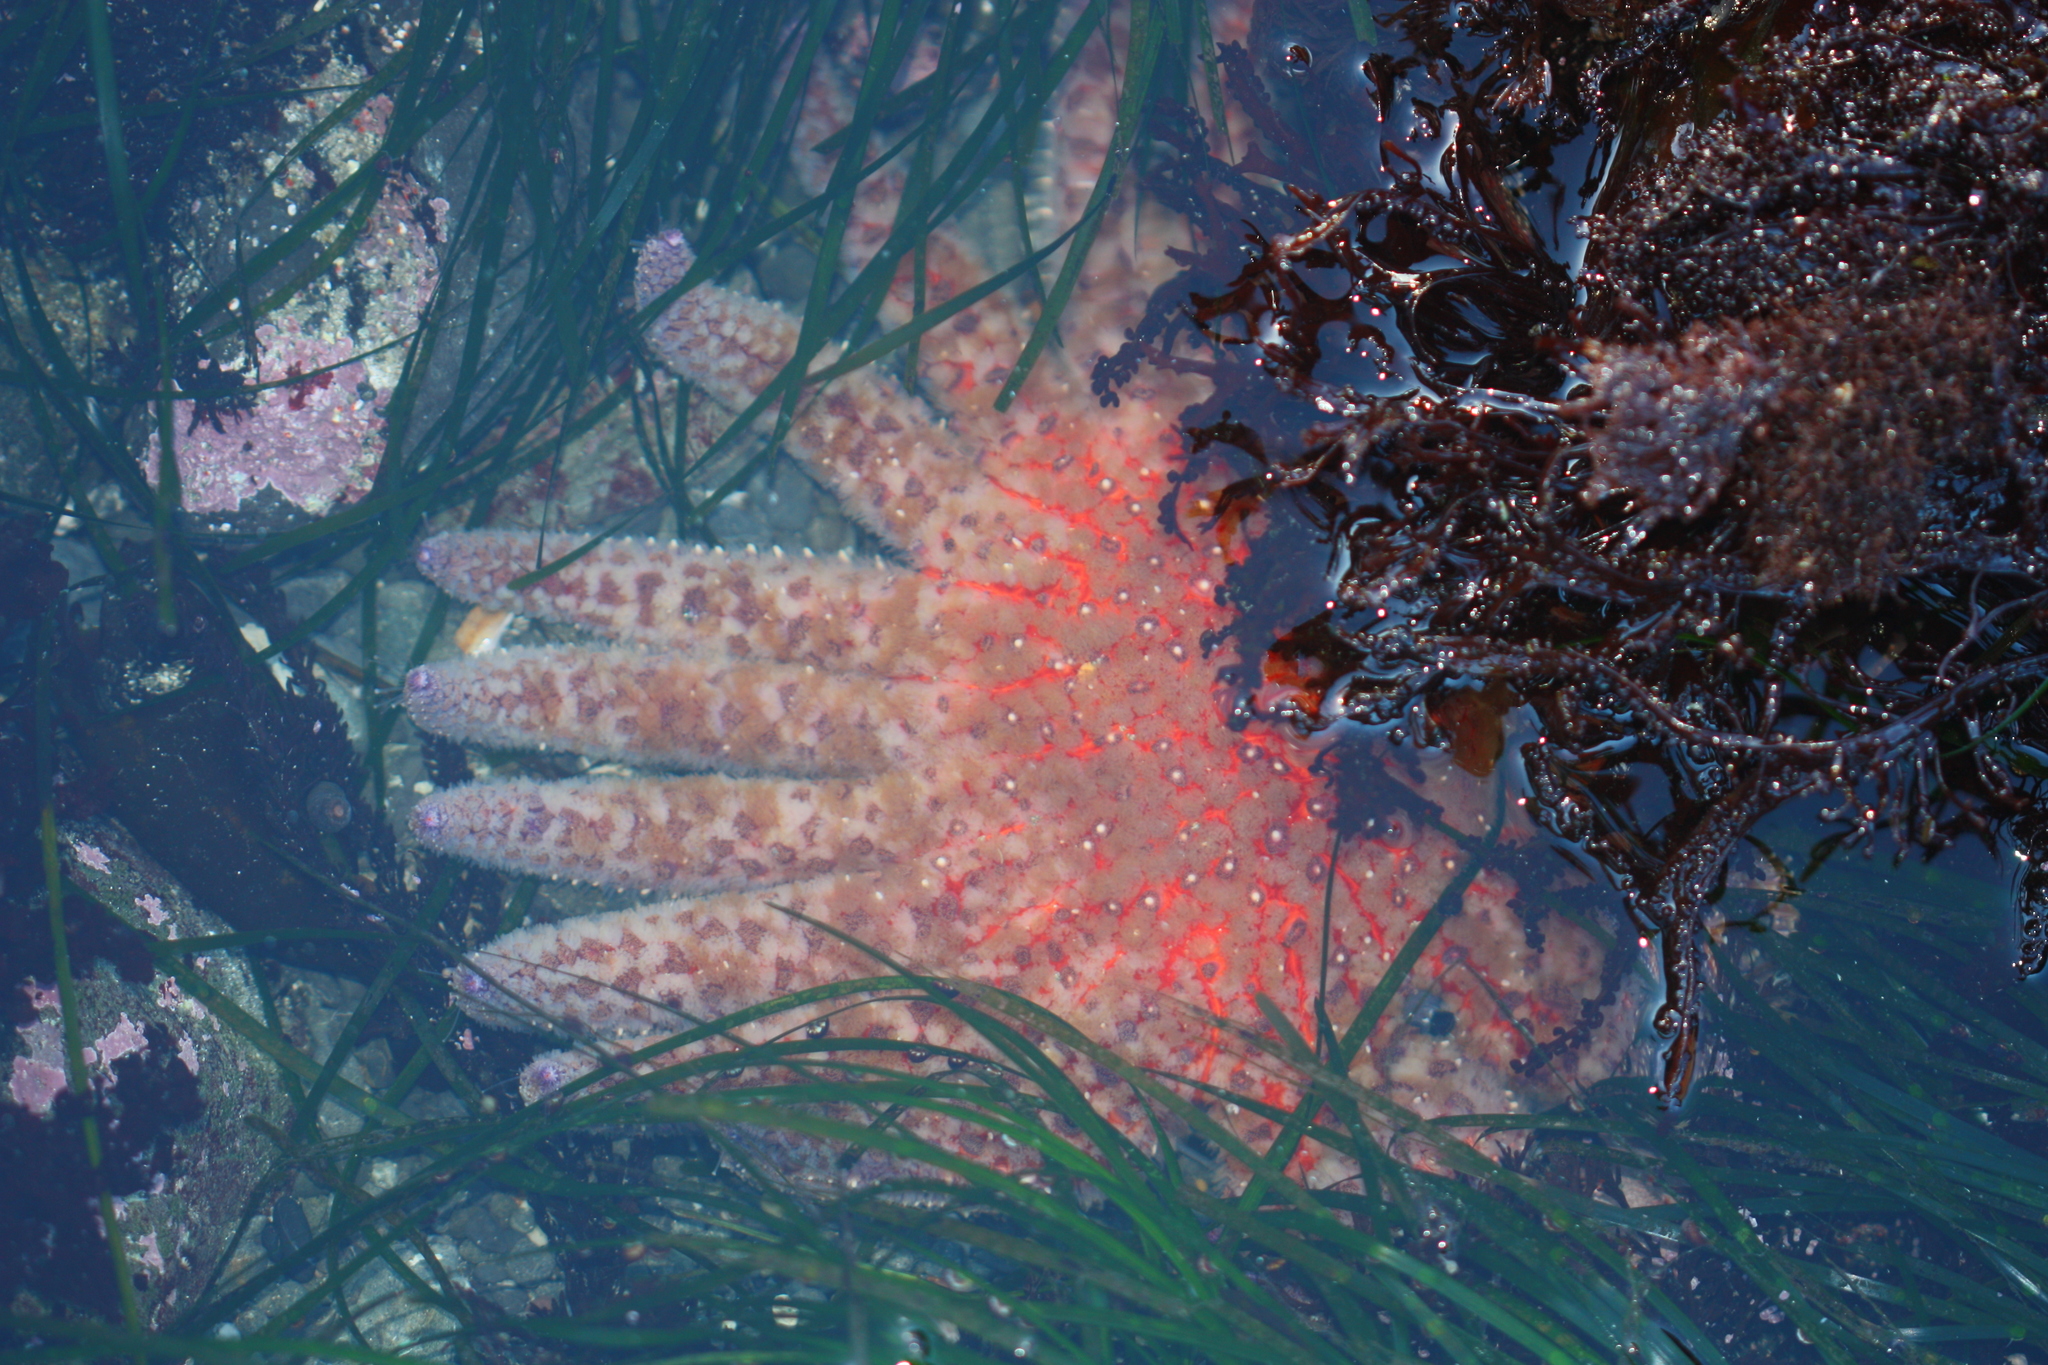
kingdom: Animalia
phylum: Echinodermata
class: Asteroidea
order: Forcipulatida
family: Asteriidae
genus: Pycnopodia
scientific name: Pycnopodia helianthoides
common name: Rag mop
